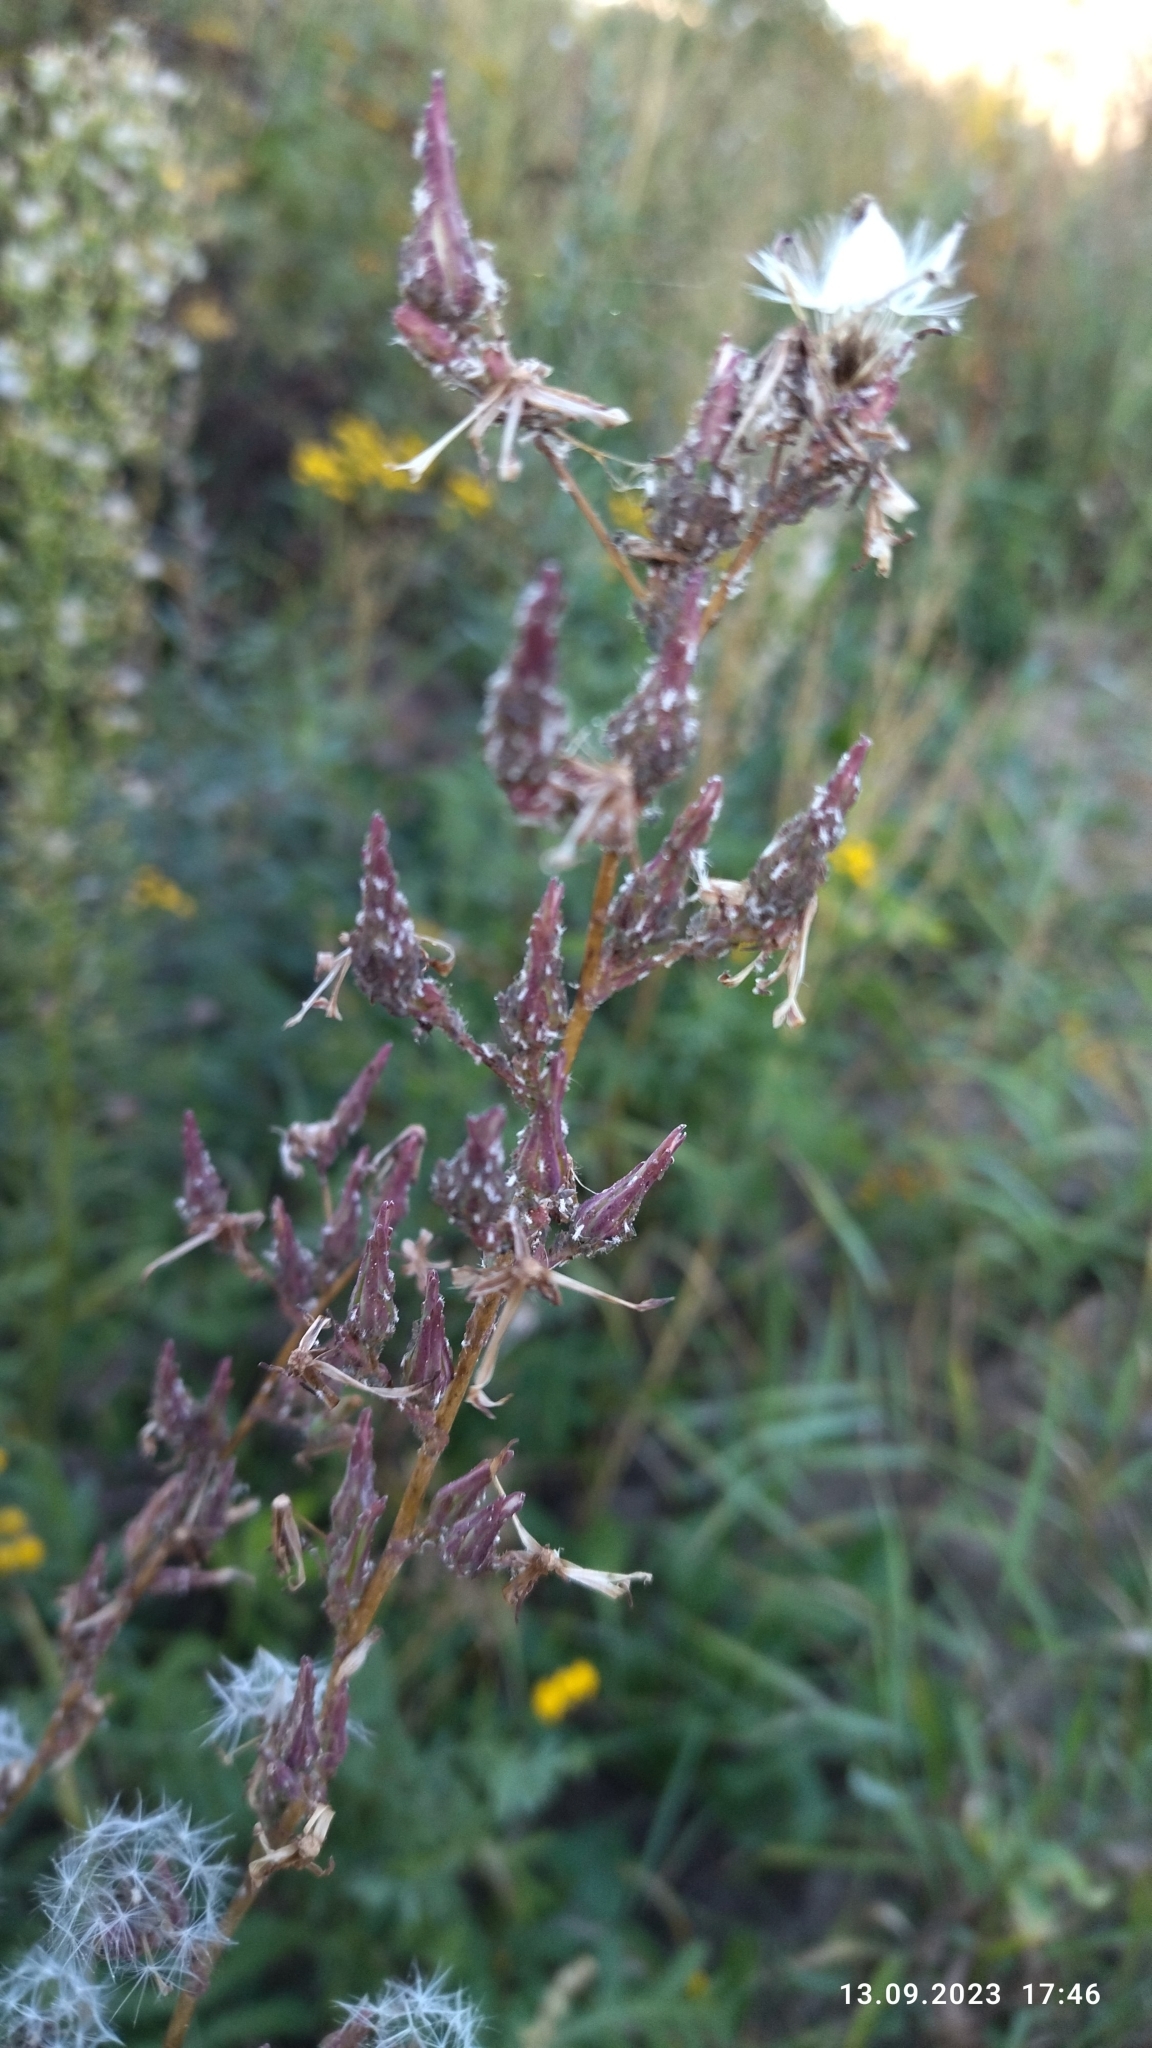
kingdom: Plantae
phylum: Tracheophyta
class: Magnoliopsida
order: Asterales
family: Asteraceae
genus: Lactuca
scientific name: Lactuca serriola
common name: Prickly lettuce
